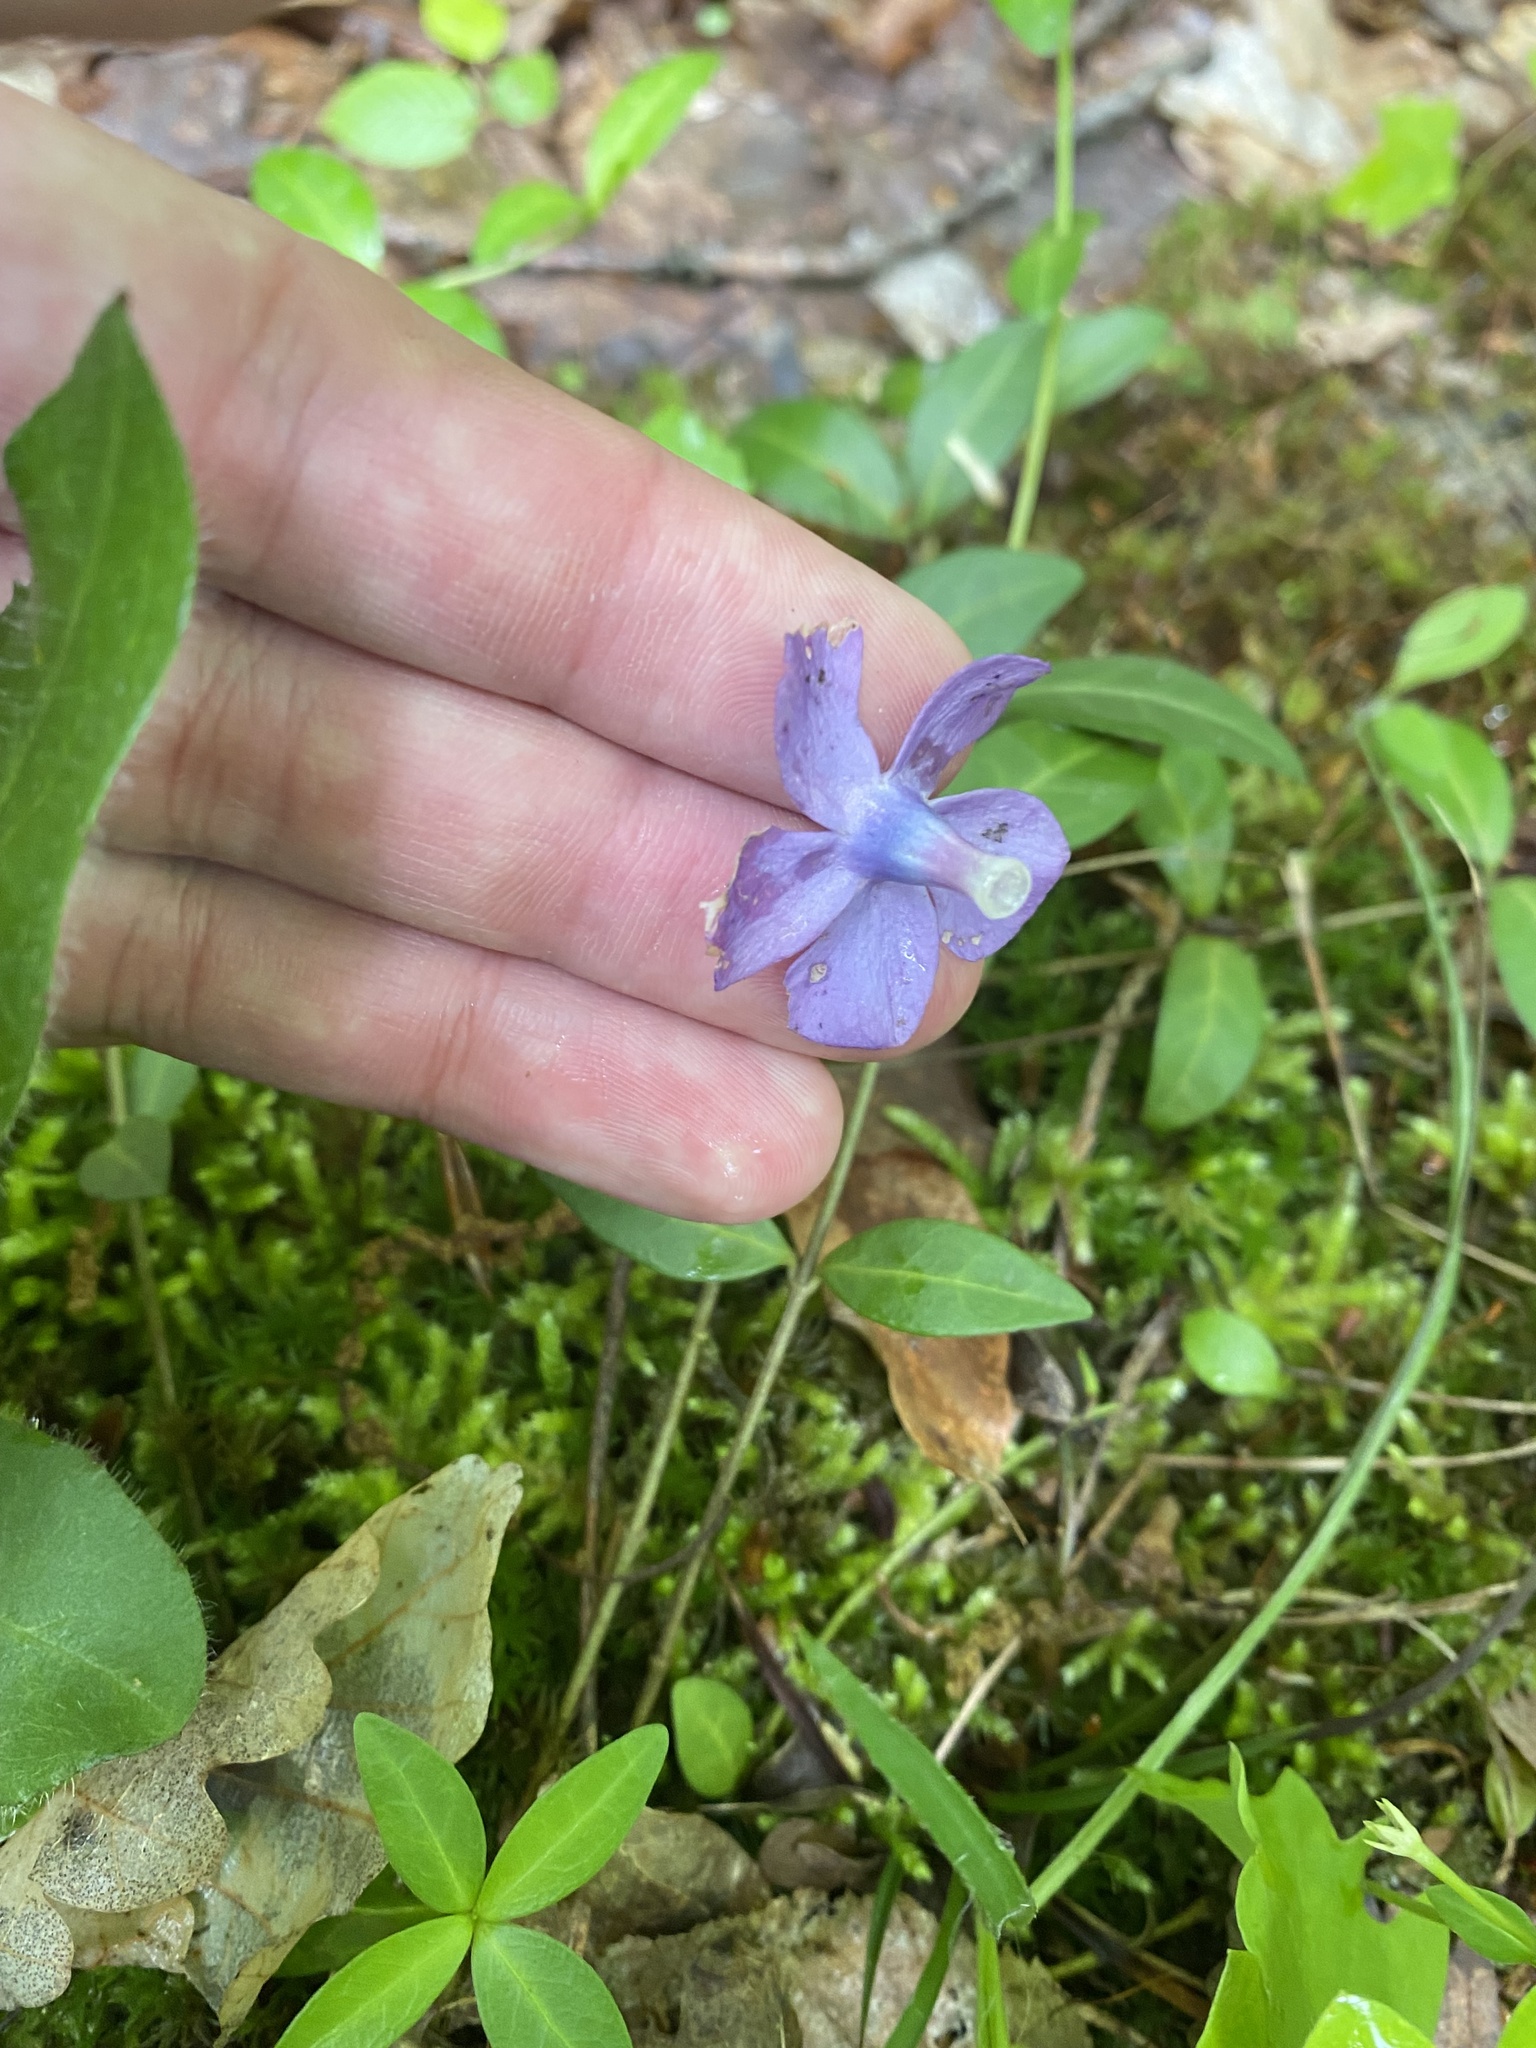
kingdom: Plantae
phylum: Tracheophyta
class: Magnoliopsida
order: Gentianales
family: Apocynaceae
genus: Vinca
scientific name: Vinca minor
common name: Lesser periwinkle
